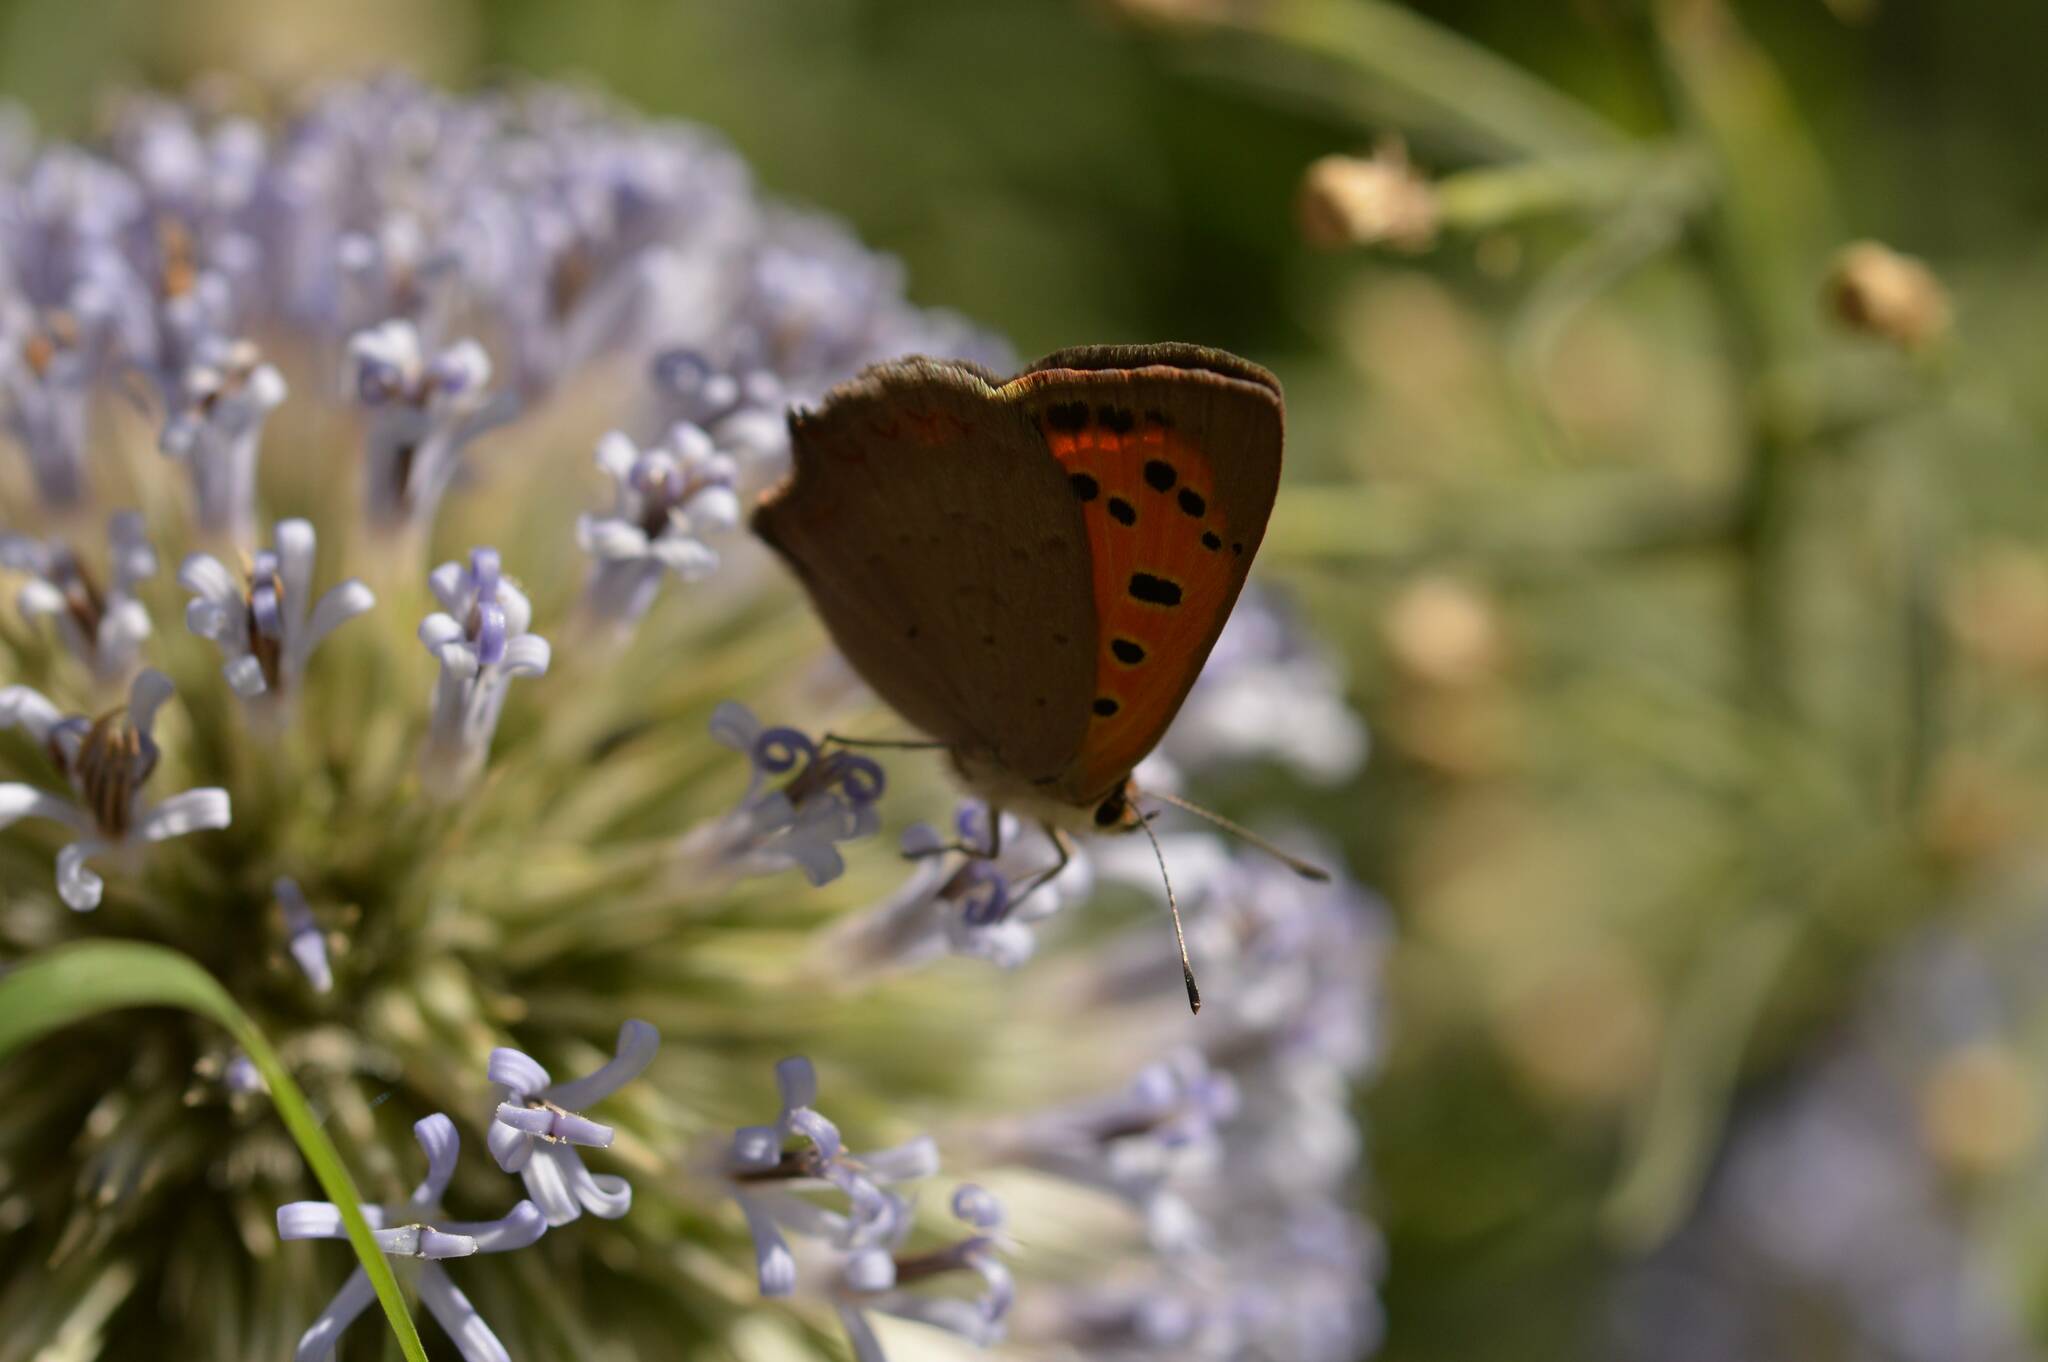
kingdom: Animalia
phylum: Arthropoda
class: Insecta
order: Lepidoptera
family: Lycaenidae
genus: Lycaena
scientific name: Lycaena phlaeas
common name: Small copper
